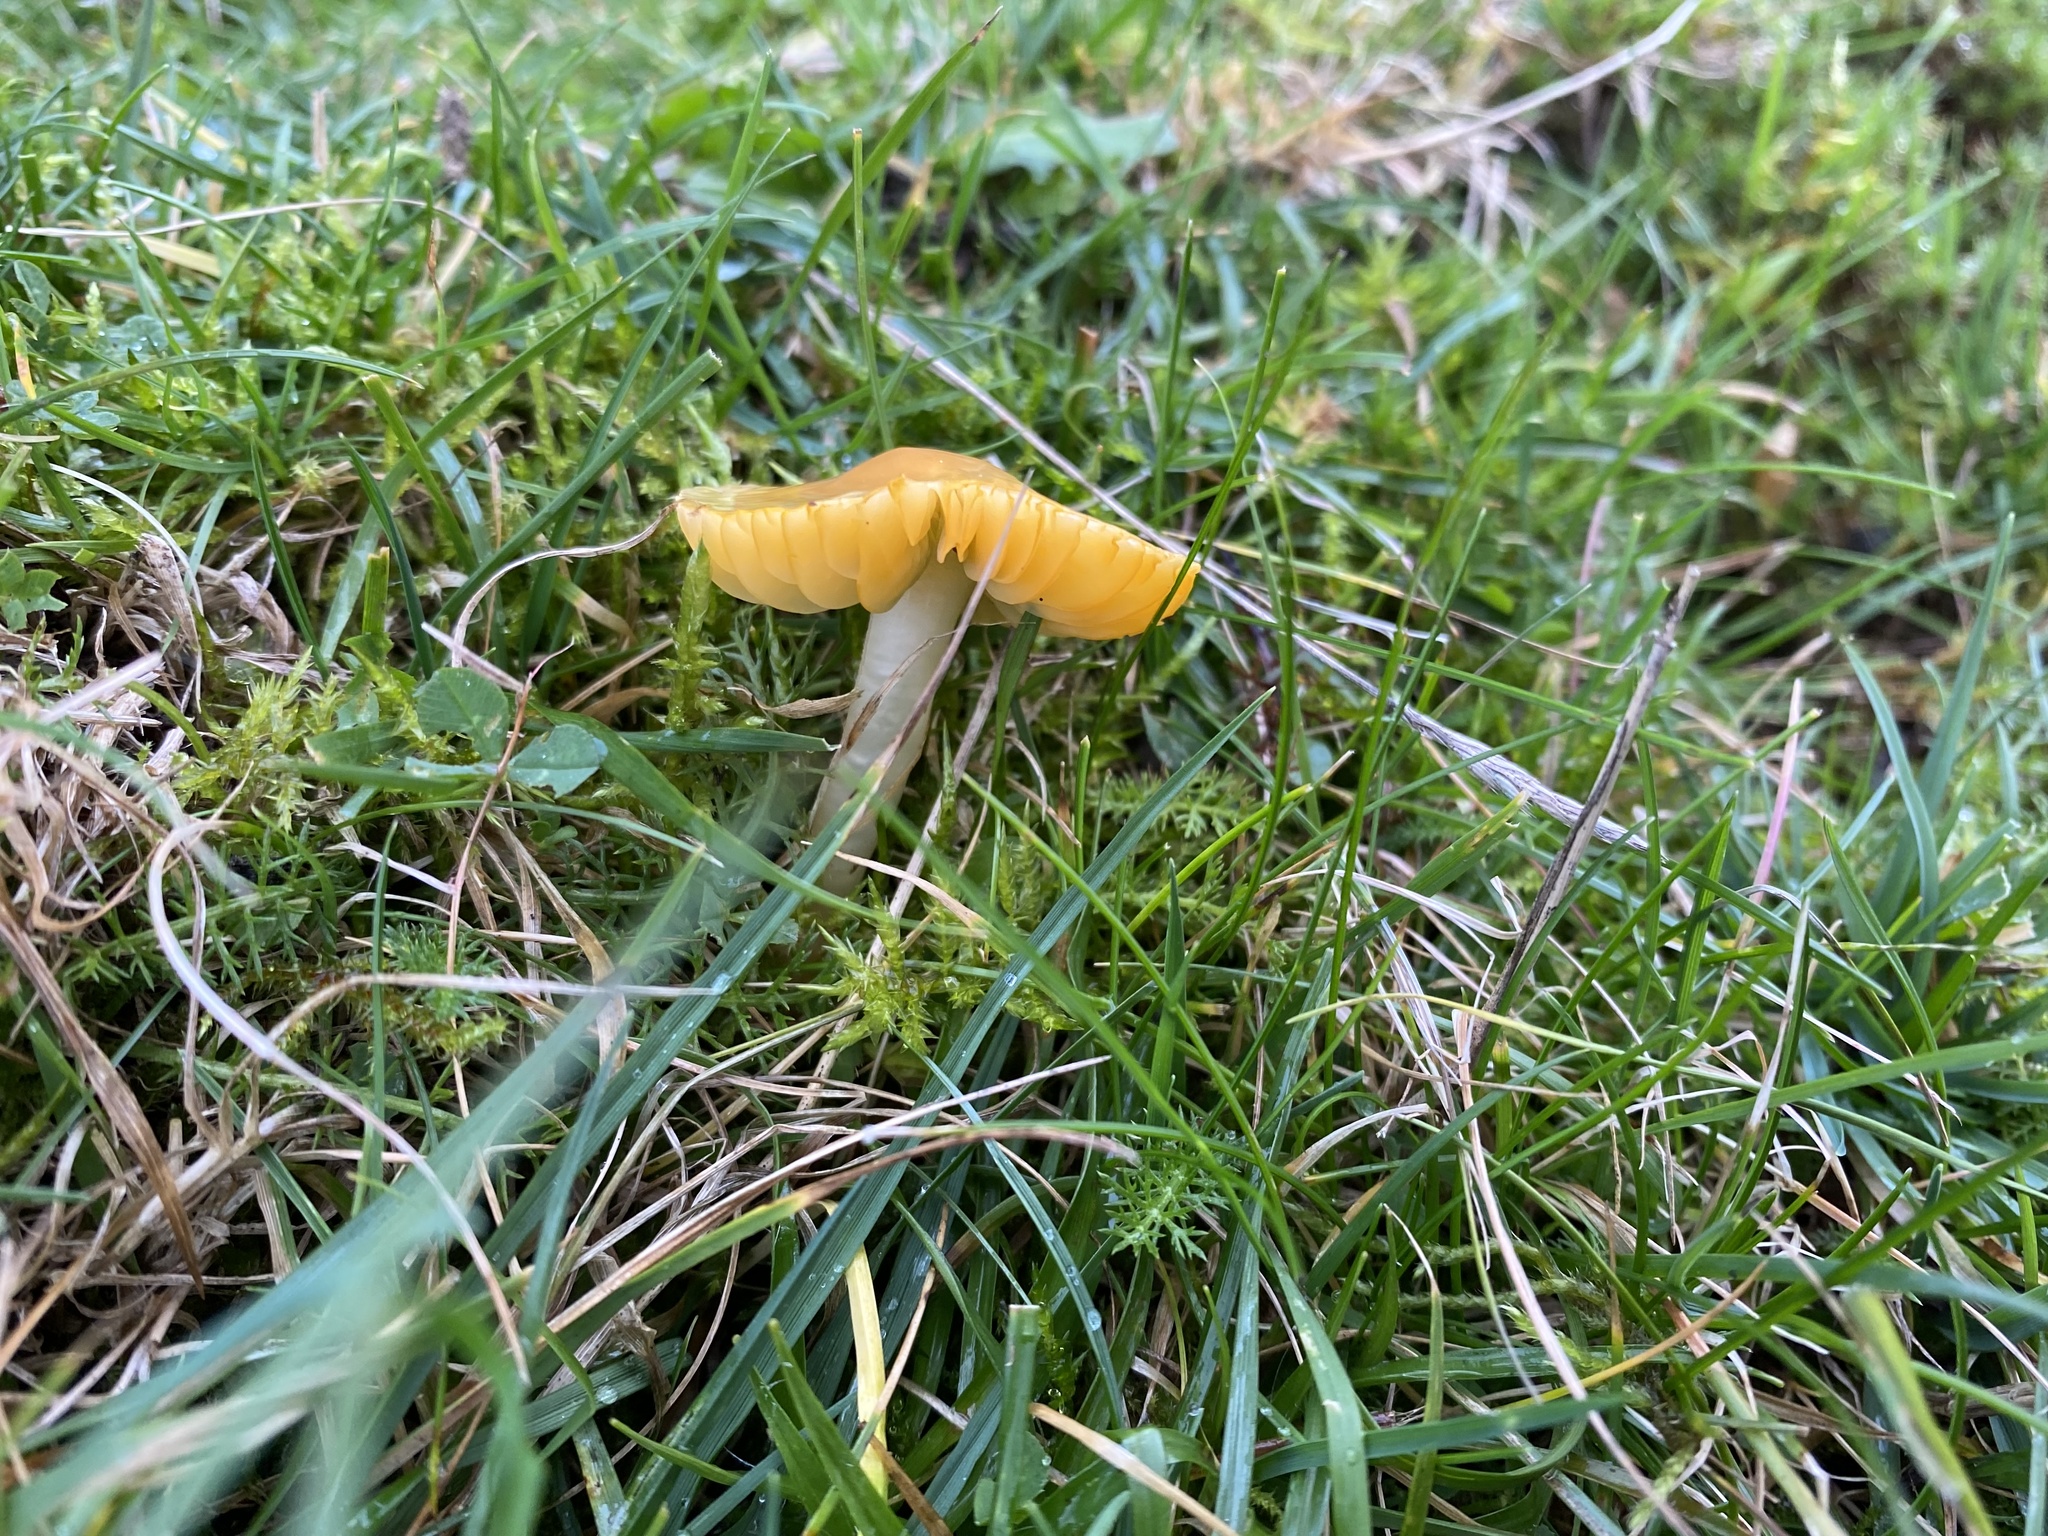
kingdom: Fungi
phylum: Basidiomycota
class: Agaricomycetes
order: Agaricales
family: Hygrophoraceae
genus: Gliophorus
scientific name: Gliophorus psittacinus
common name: Parrot wax-cap
